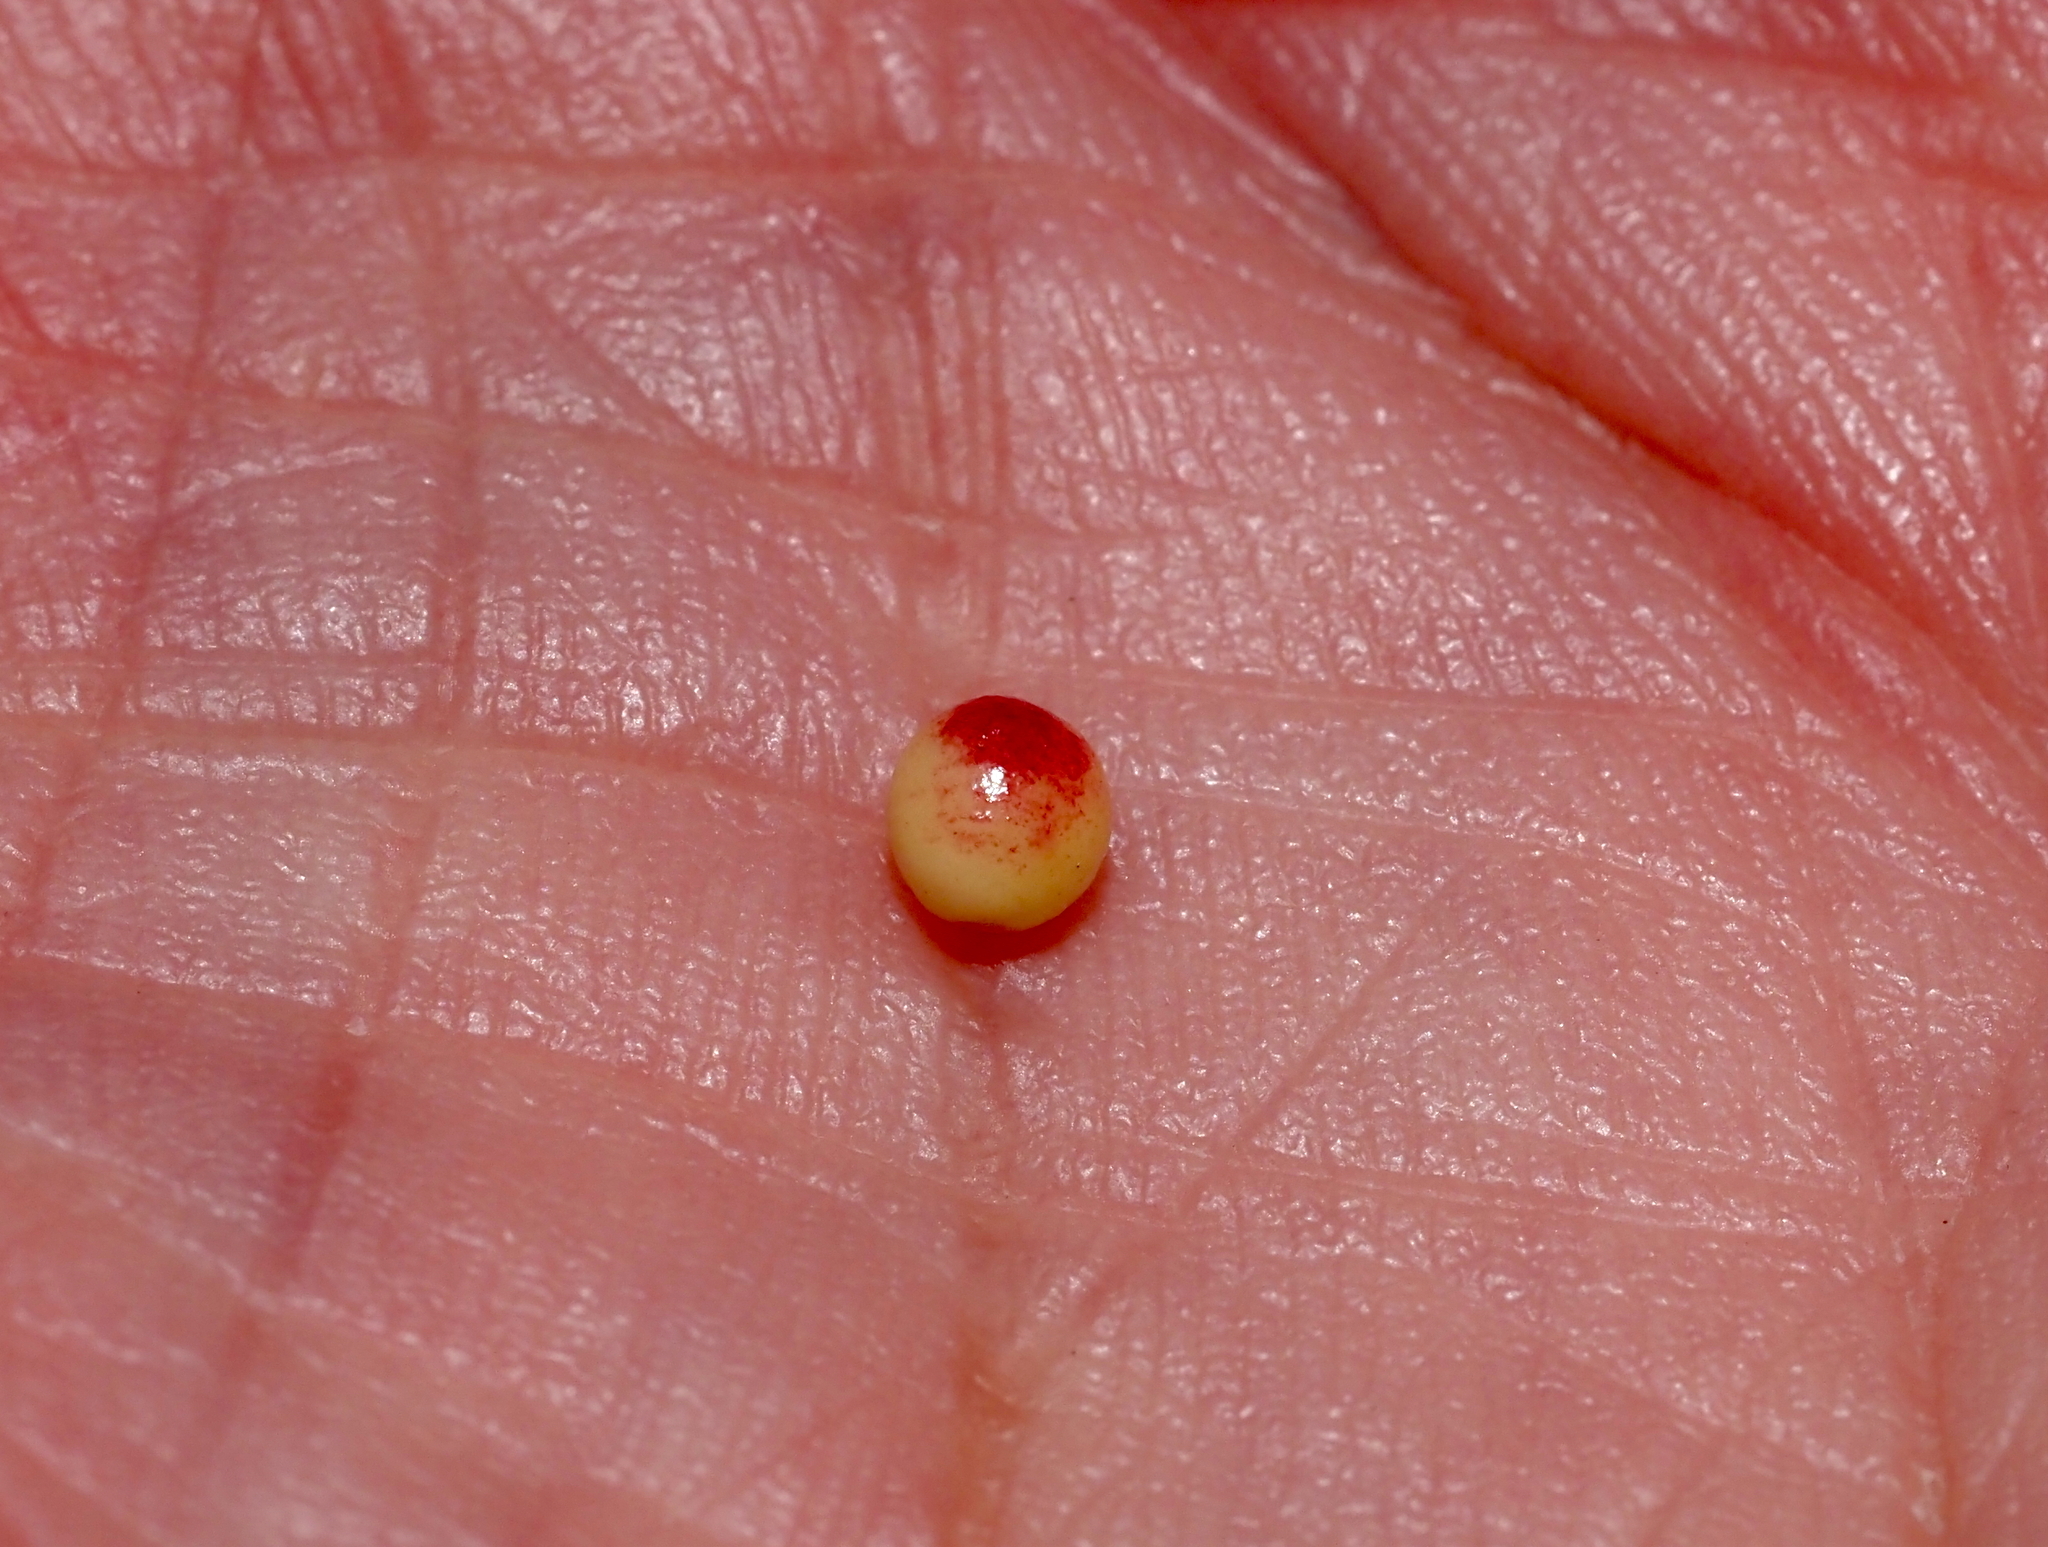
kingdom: Animalia
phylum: Arthropoda
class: Insecta
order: Hymenoptera
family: Cynipidae
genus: Zopheroteras
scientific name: Zopheroteras
